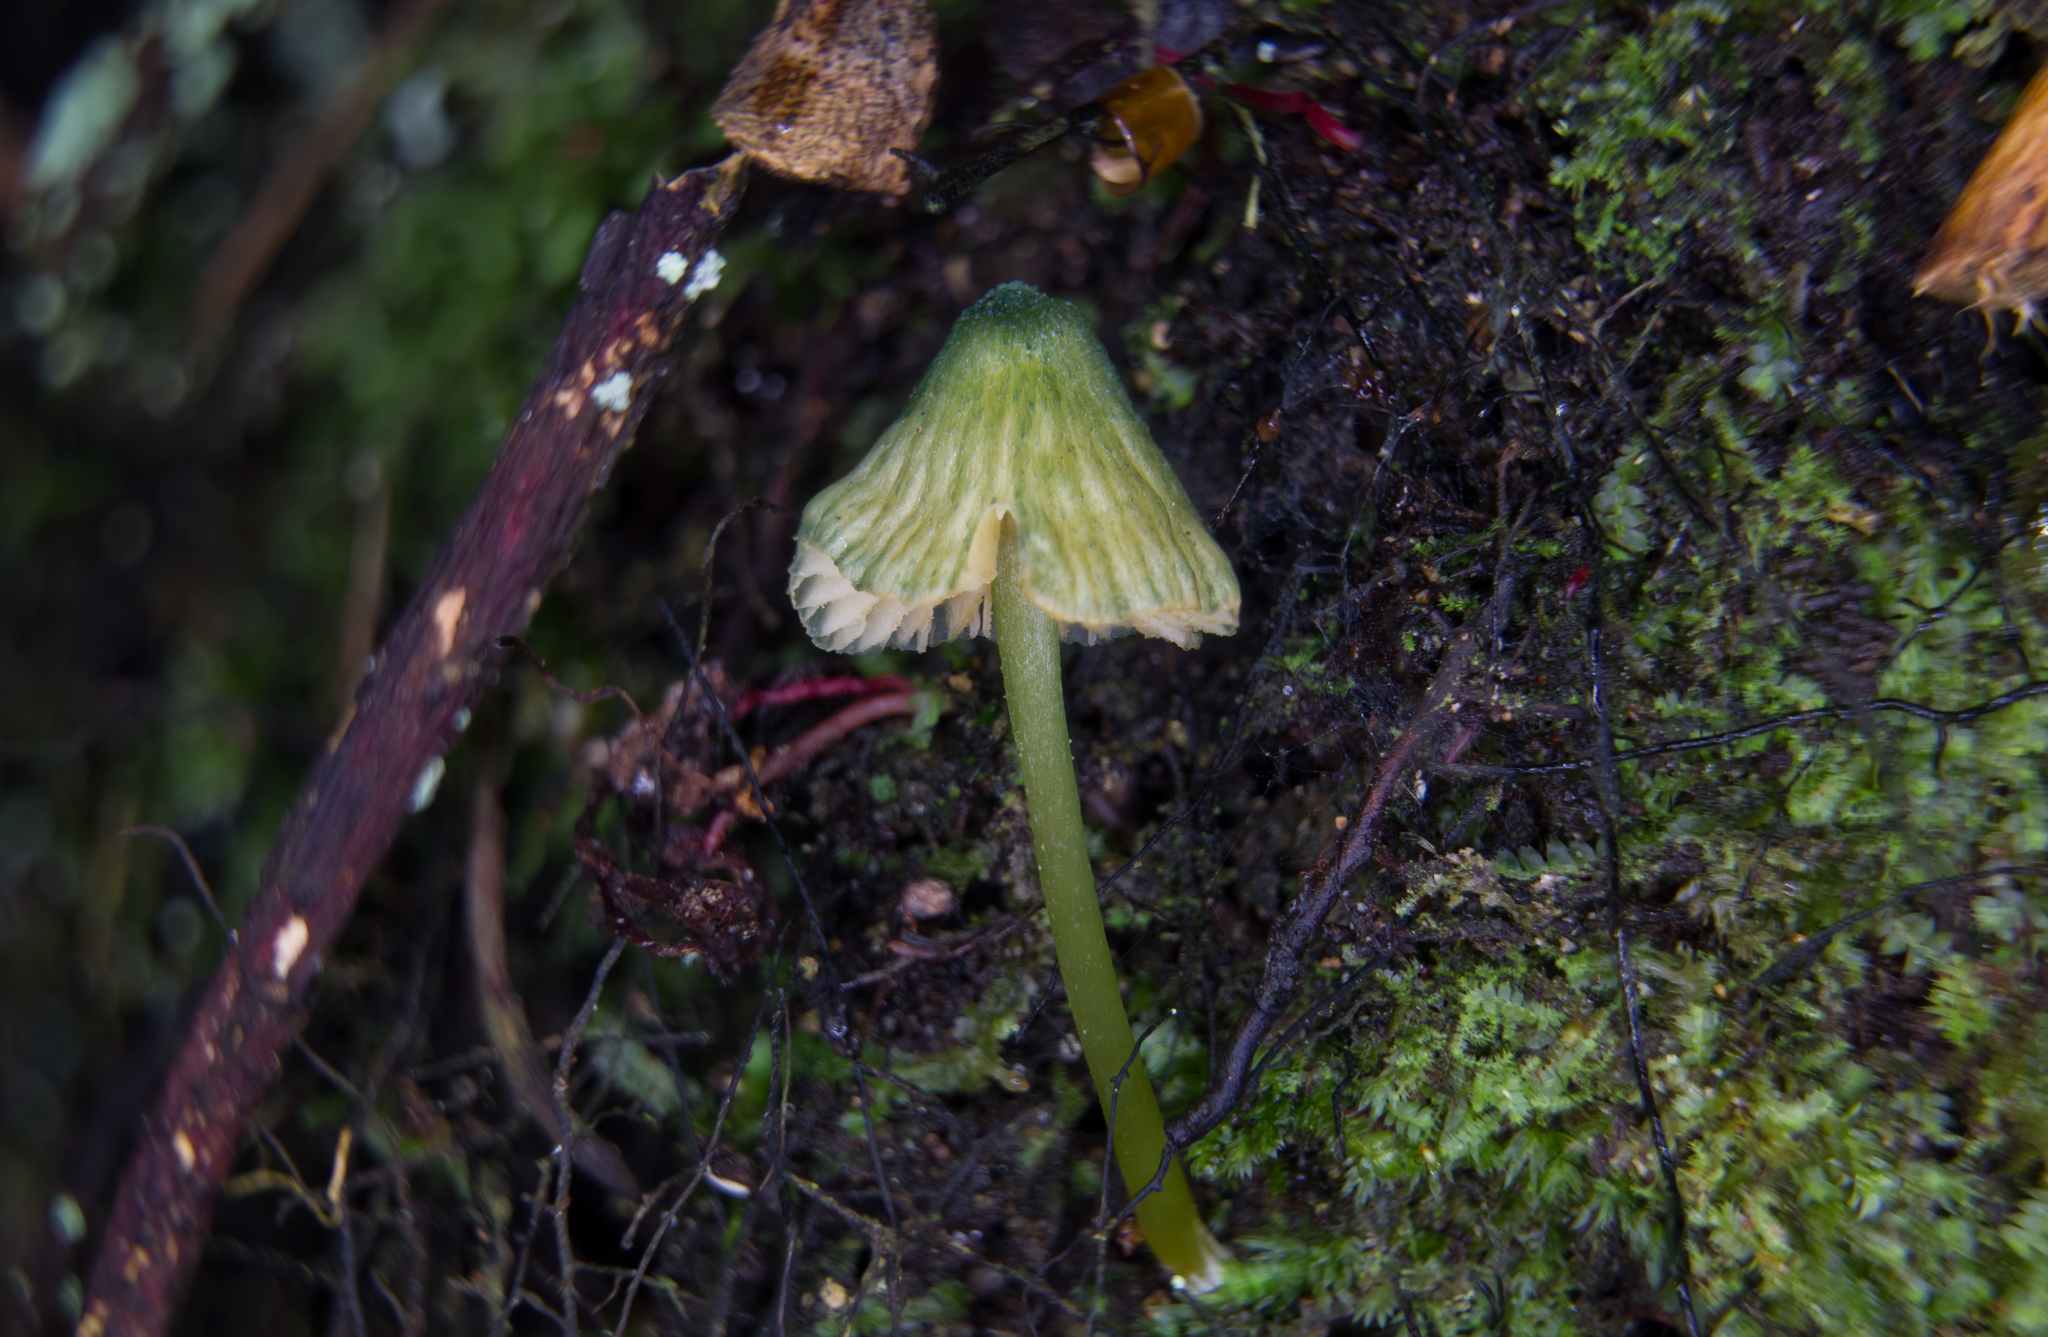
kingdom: Fungi
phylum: Basidiomycota
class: Agaricomycetes
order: Agaricales
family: Entolomataceae
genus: Entoloma
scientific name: Entoloma glaucoroseum
